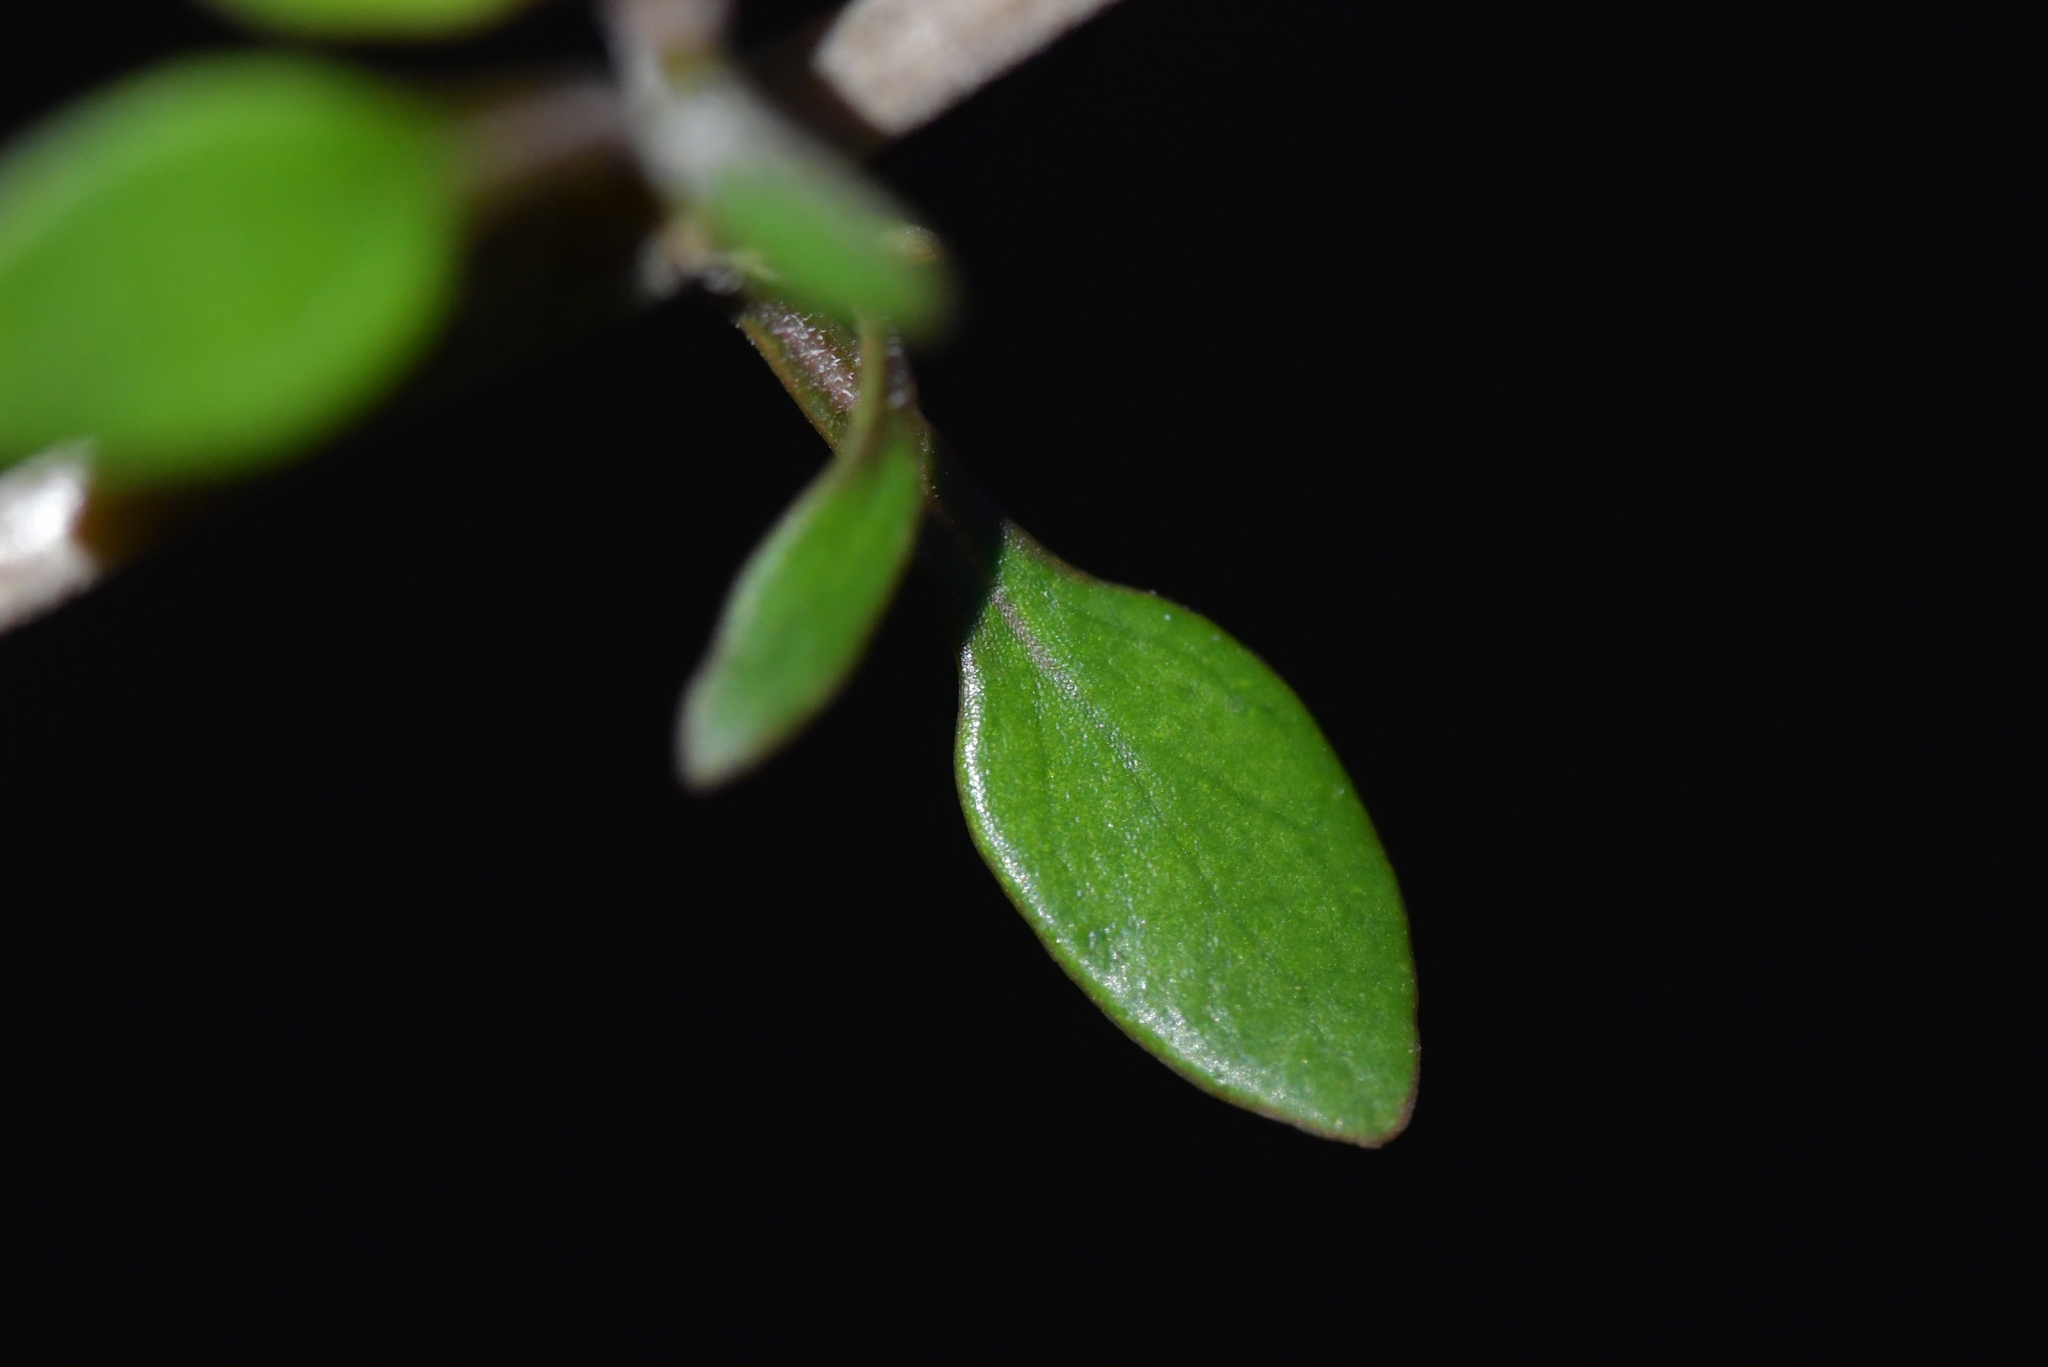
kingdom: Plantae
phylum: Tracheophyta
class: Magnoliopsida
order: Gentianales
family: Rubiaceae
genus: Coprosma
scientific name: Coprosma propinqua
